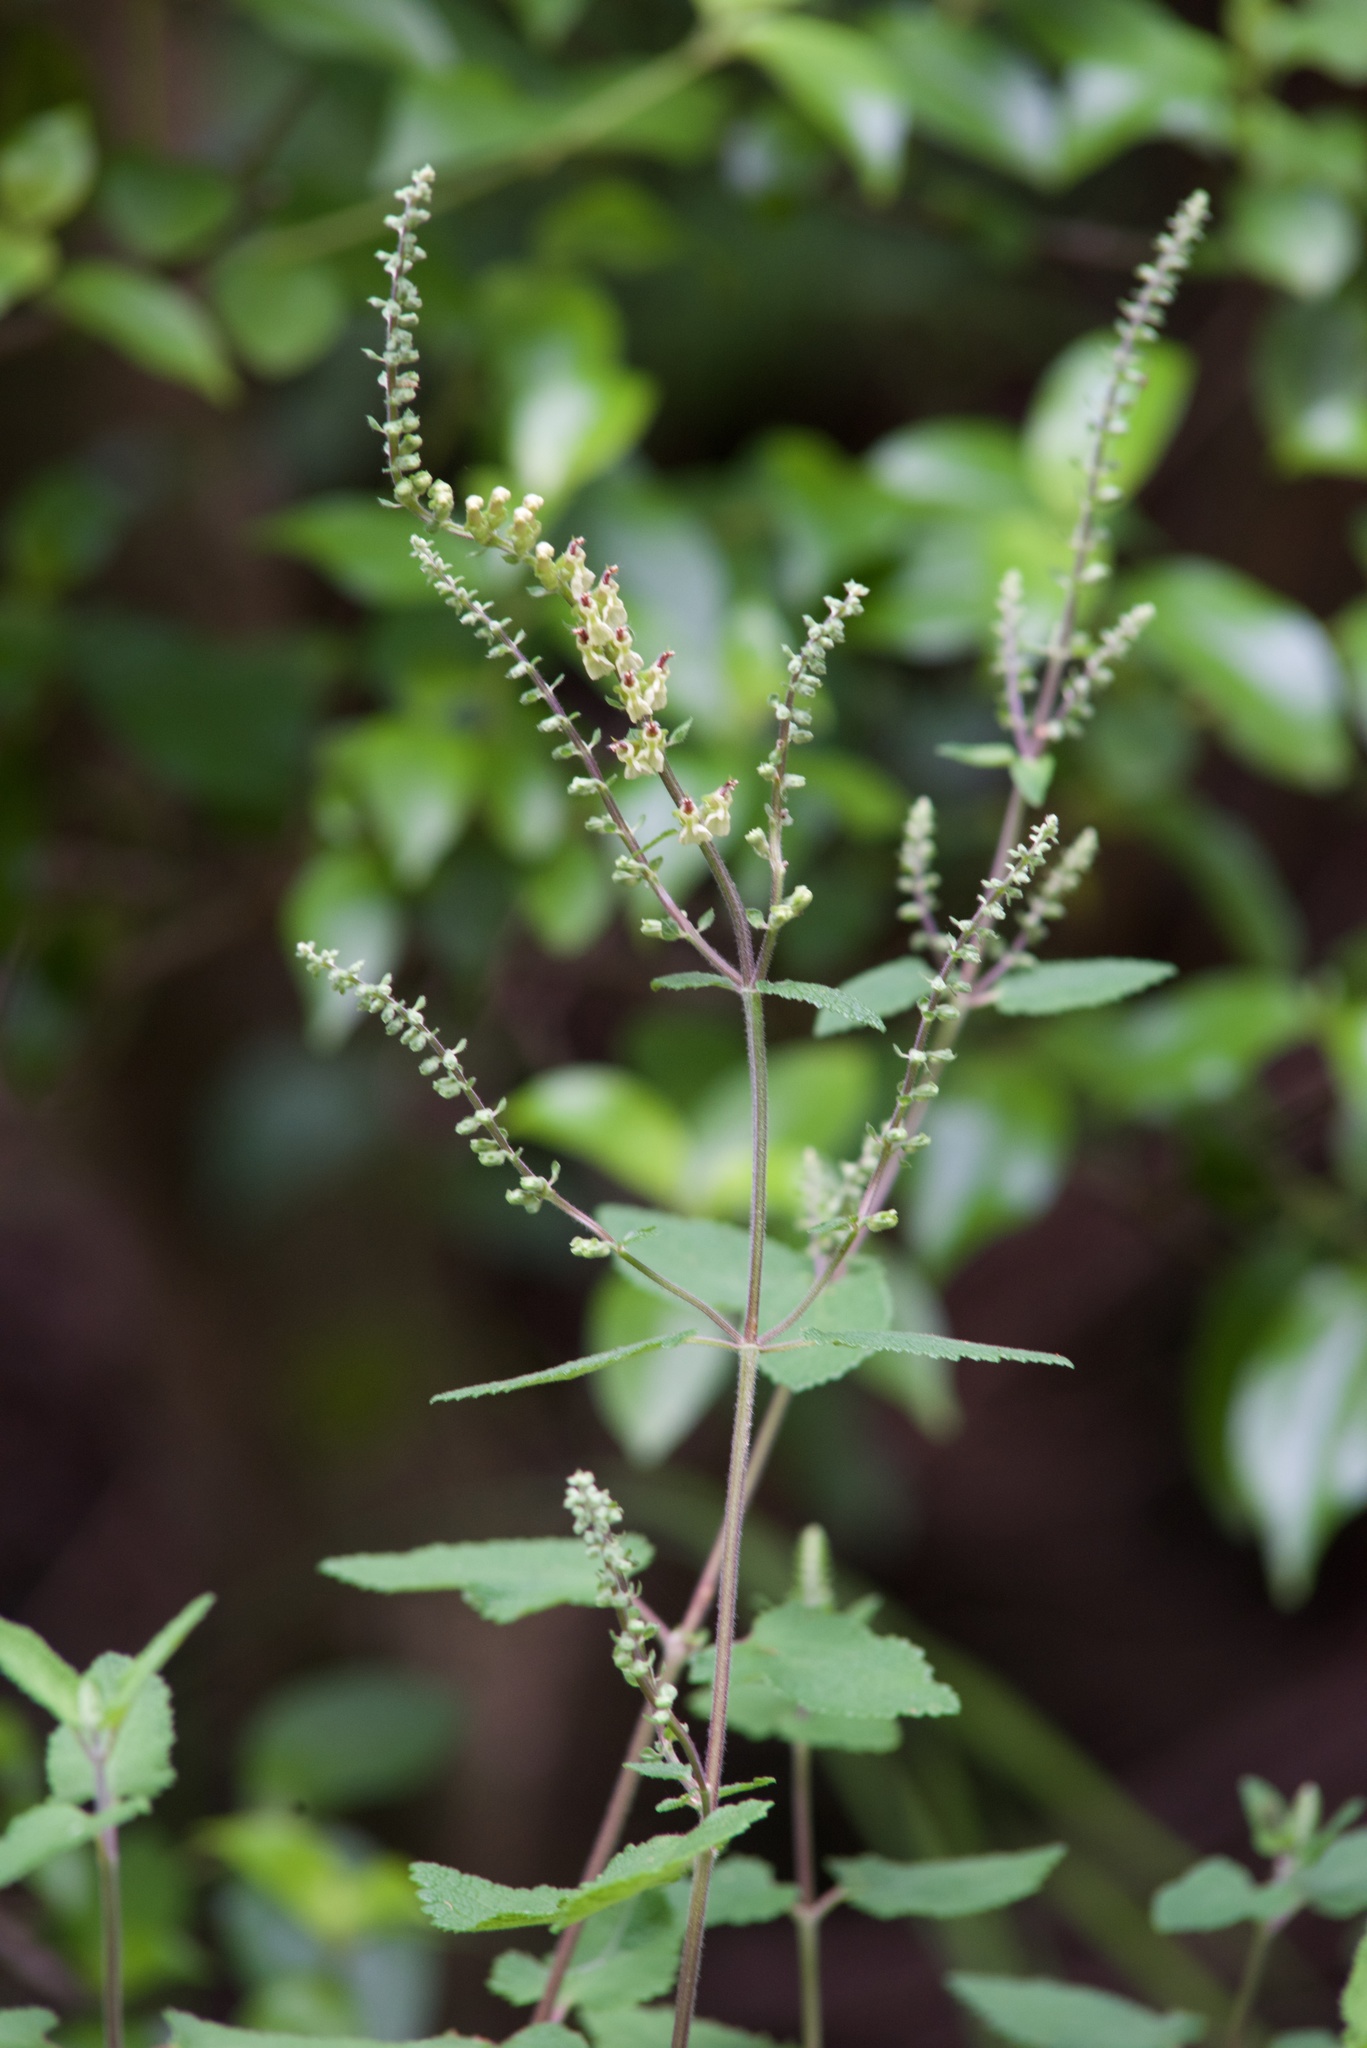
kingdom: Plantae
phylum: Tracheophyta
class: Magnoliopsida
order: Lamiales
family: Lamiaceae
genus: Teucrium
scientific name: Teucrium scorodonia
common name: Woodland germander
